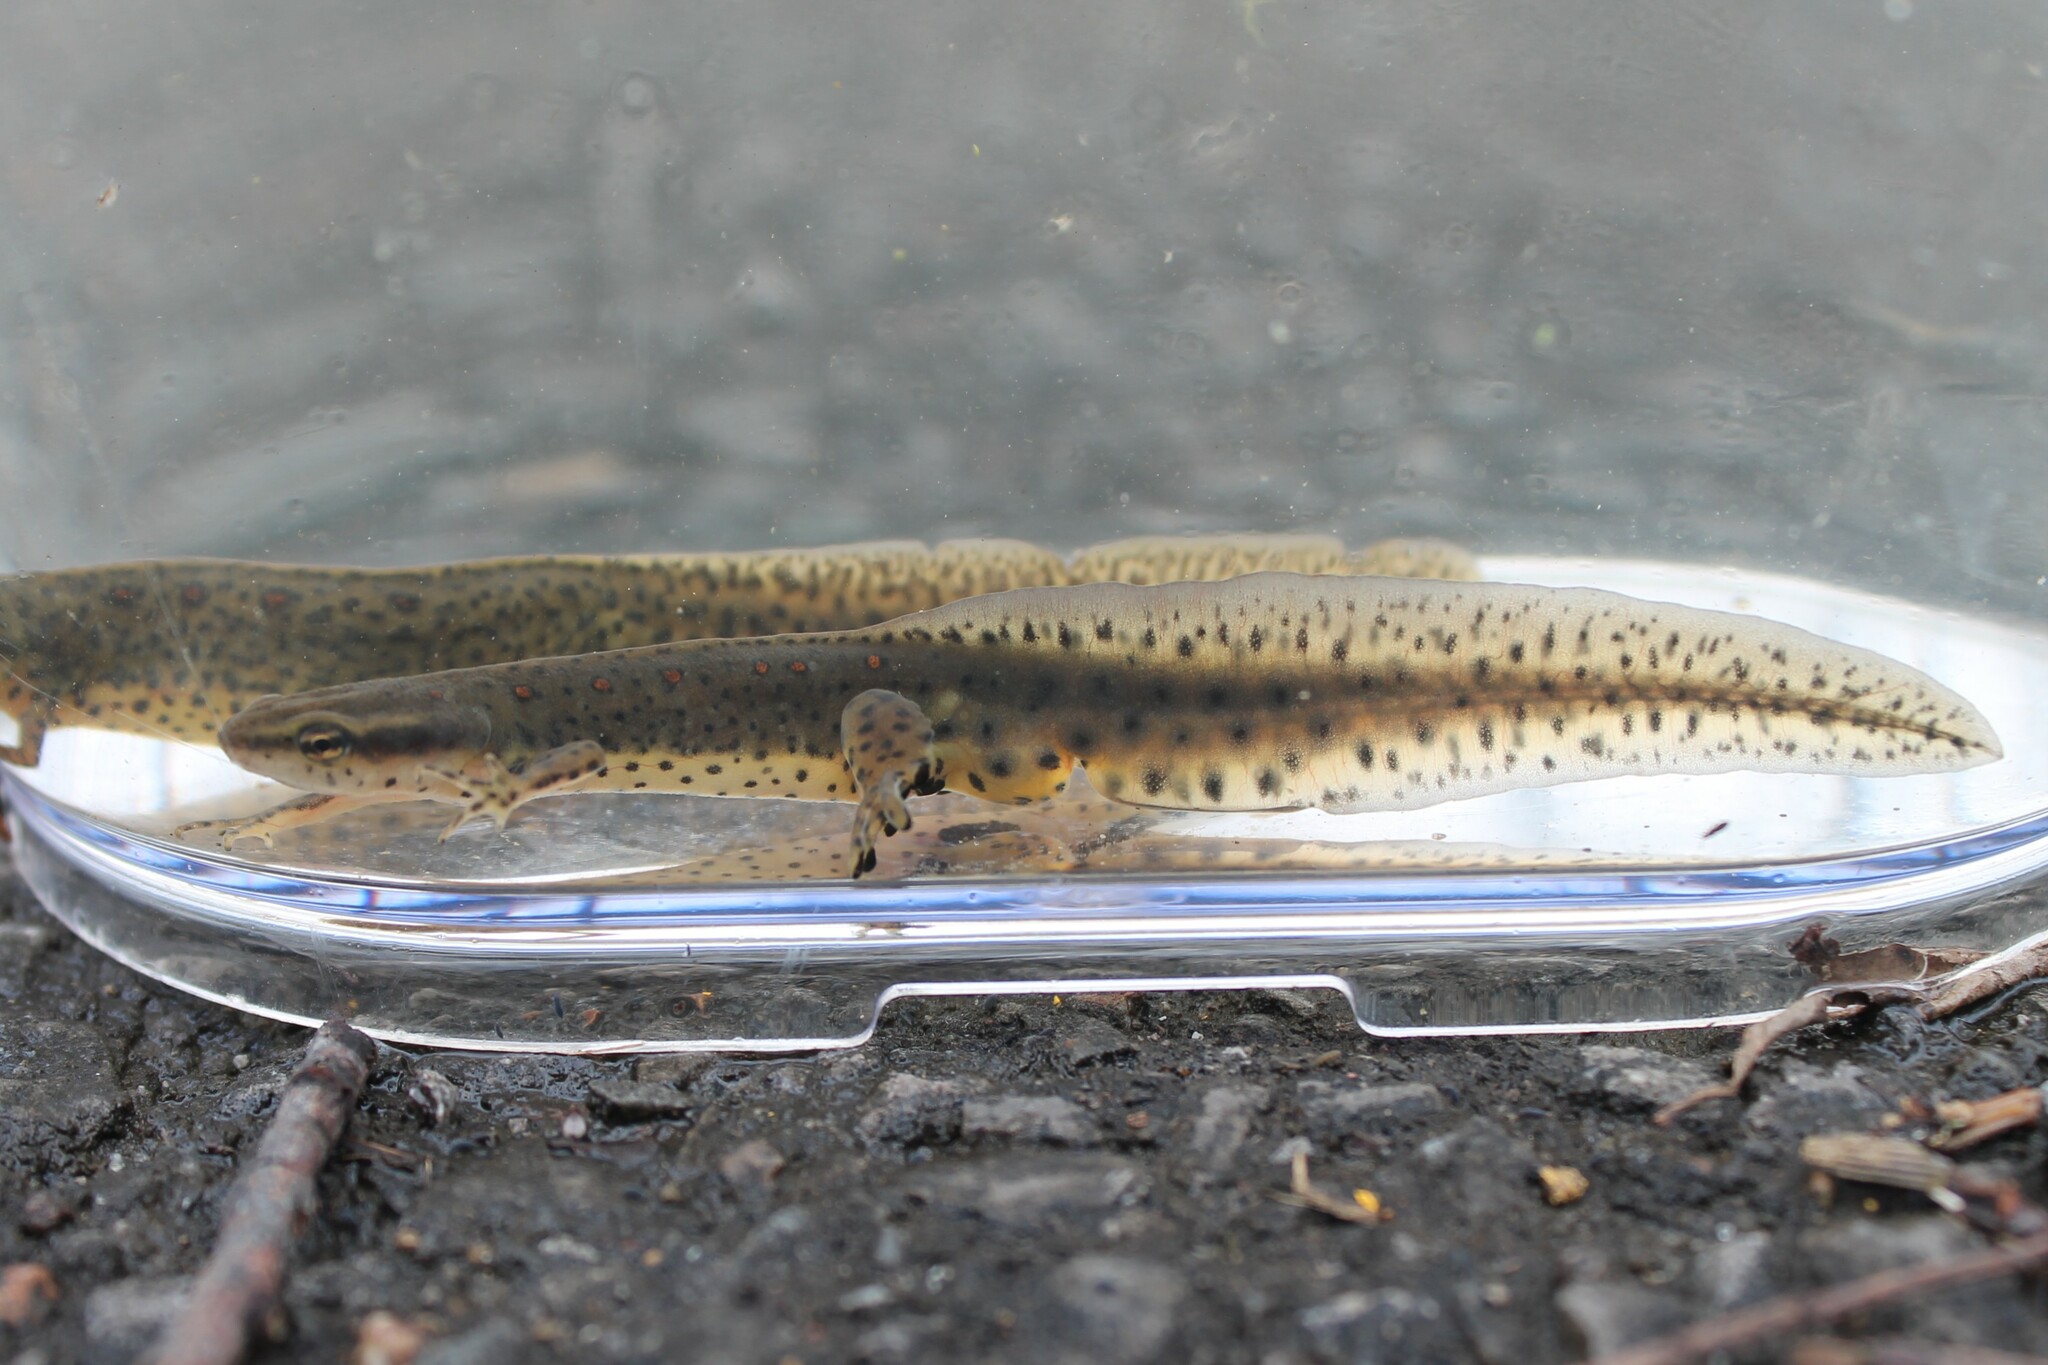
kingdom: Animalia
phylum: Chordata
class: Amphibia
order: Caudata
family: Salamandridae
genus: Notophthalmus
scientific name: Notophthalmus viridescens
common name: Eastern newt
